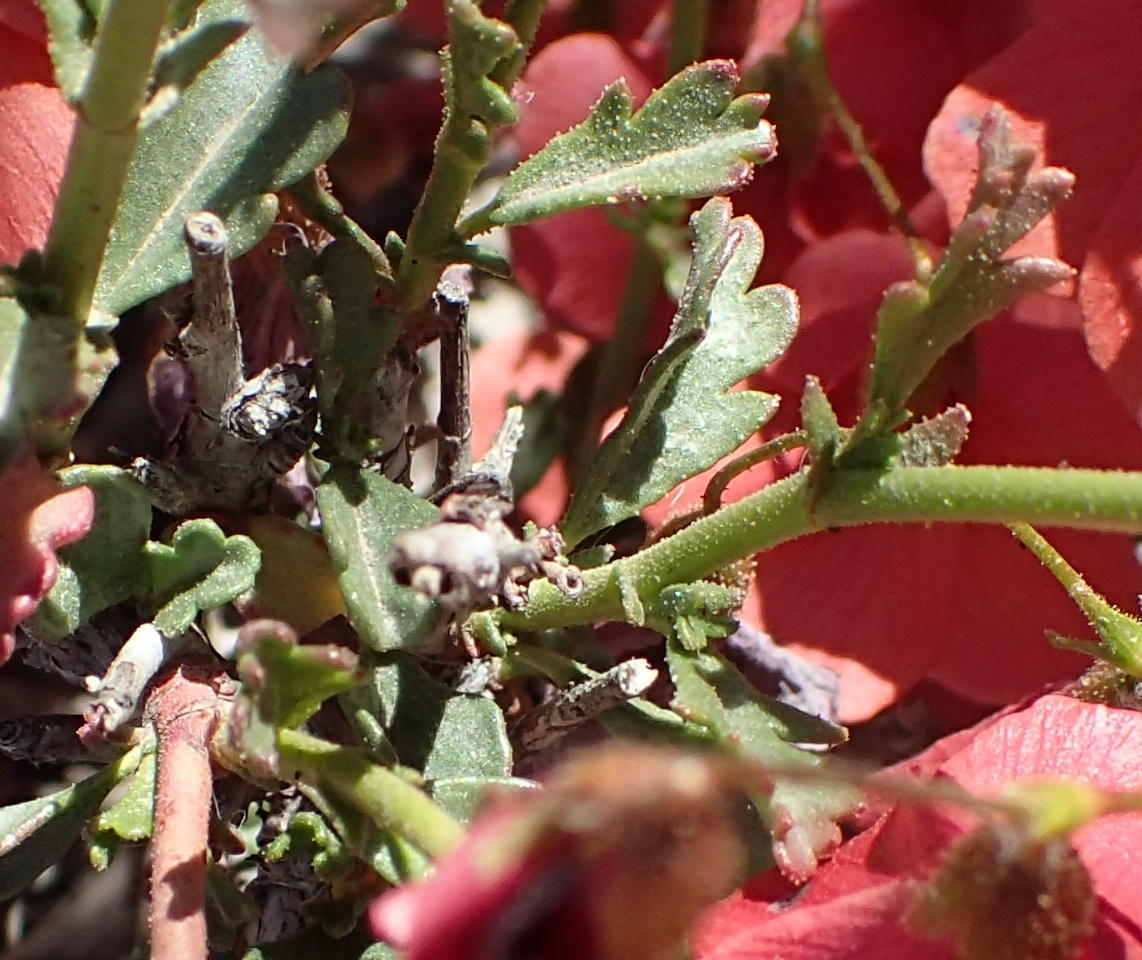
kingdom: Plantae
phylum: Tracheophyta
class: Magnoliopsida
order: Malvales
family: Malvaceae
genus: Hermannia
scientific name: Hermannia grandiflora
